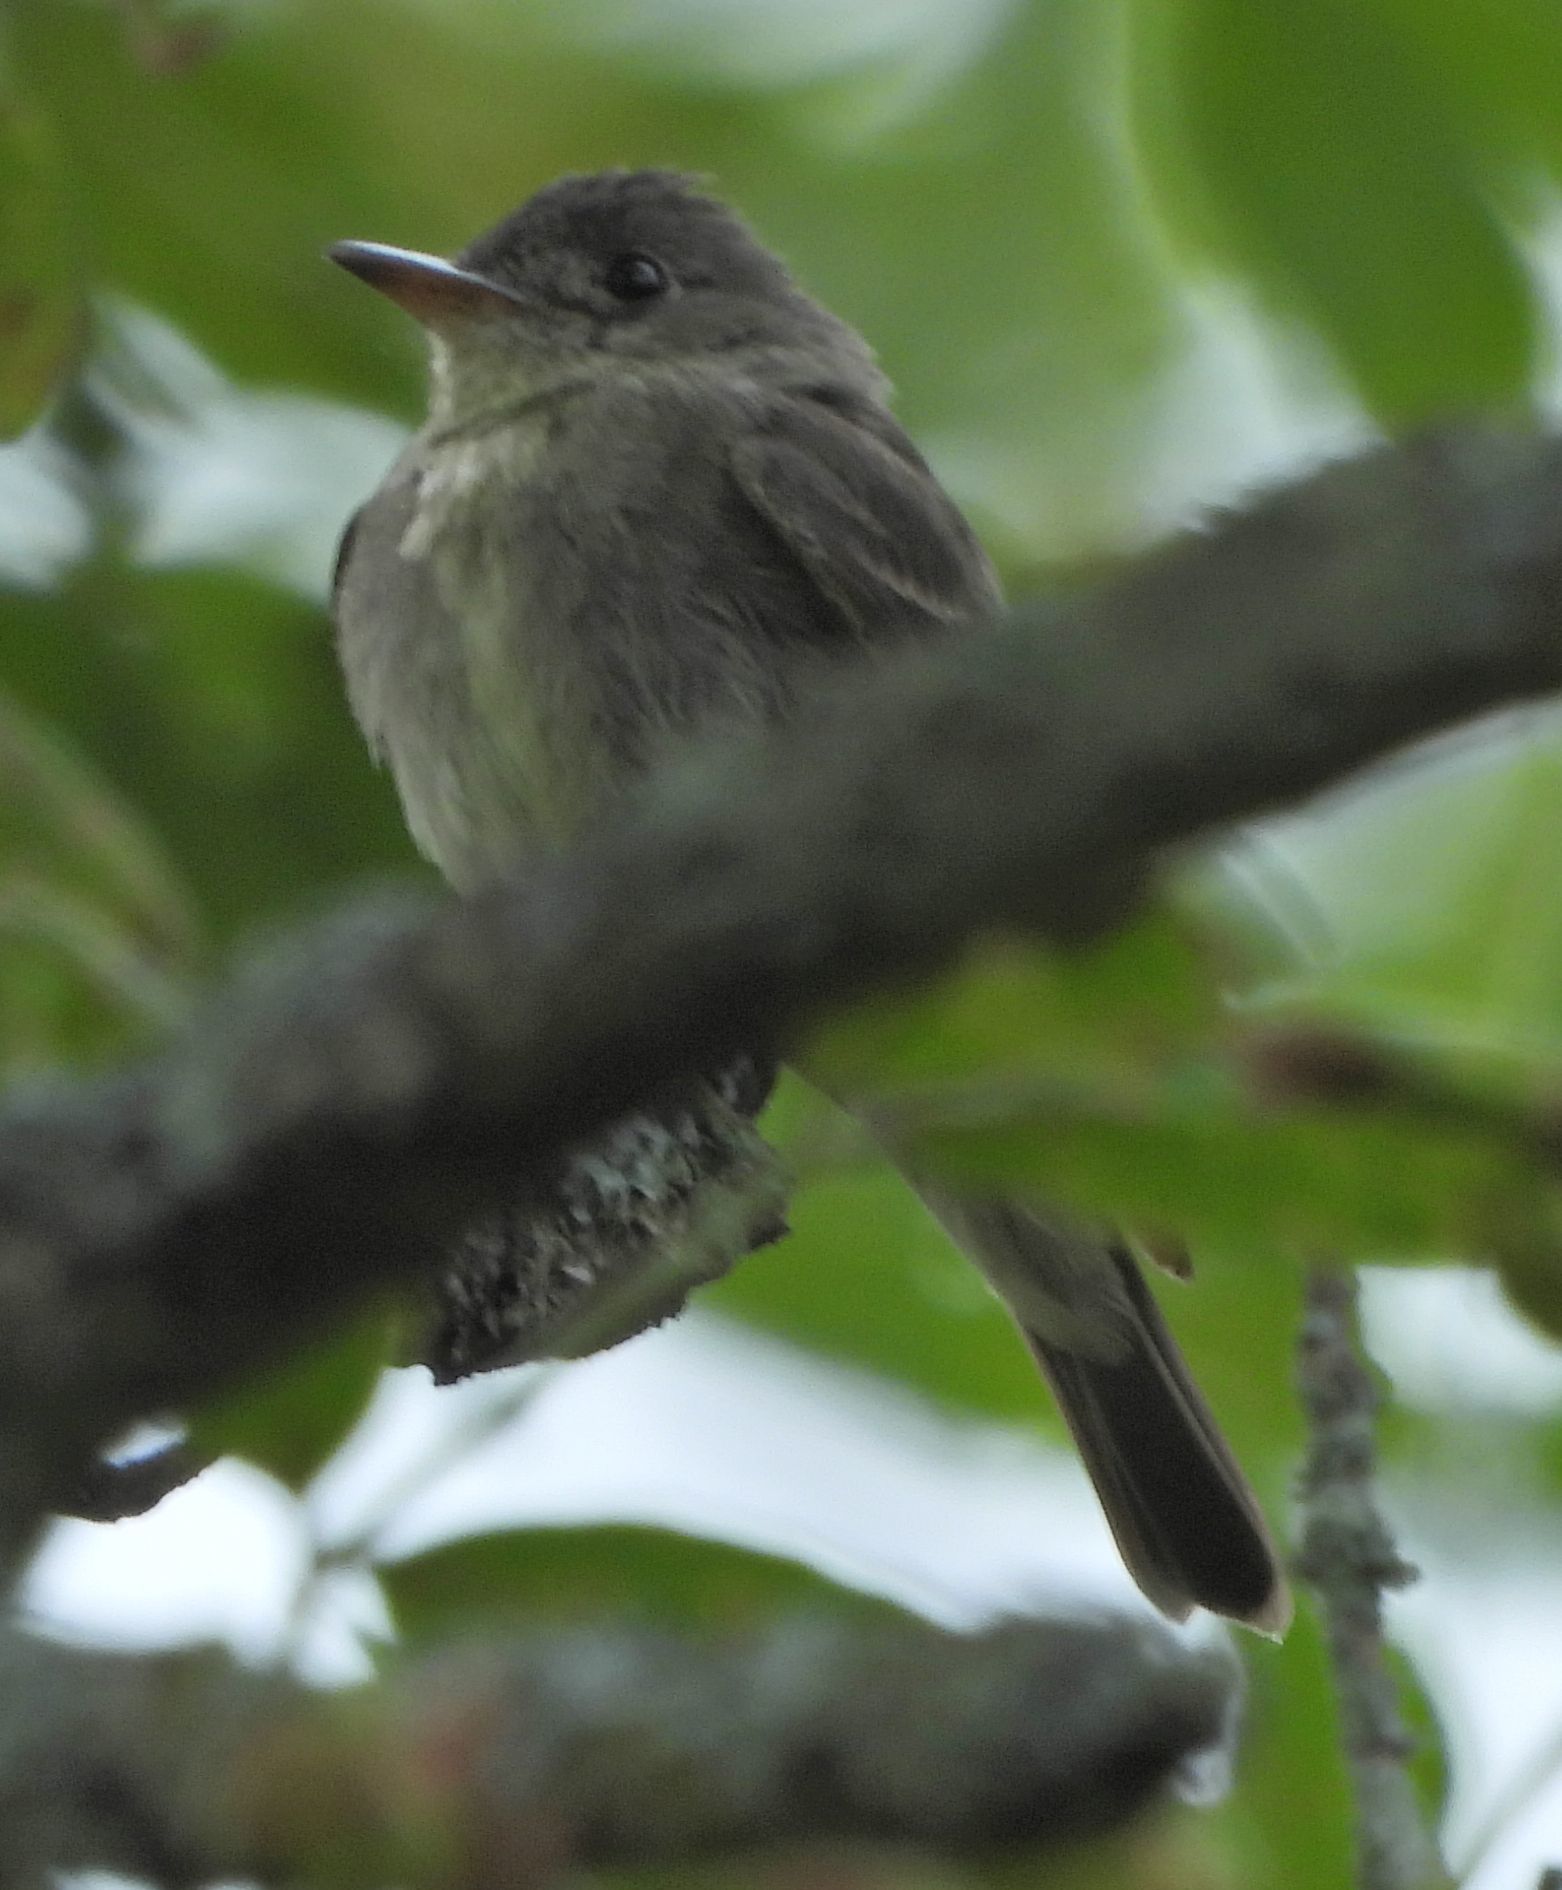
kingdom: Animalia
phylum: Chordata
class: Aves
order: Passeriformes
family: Tyrannidae
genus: Contopus
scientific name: Contopus virens
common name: Eastern wood-pewee
